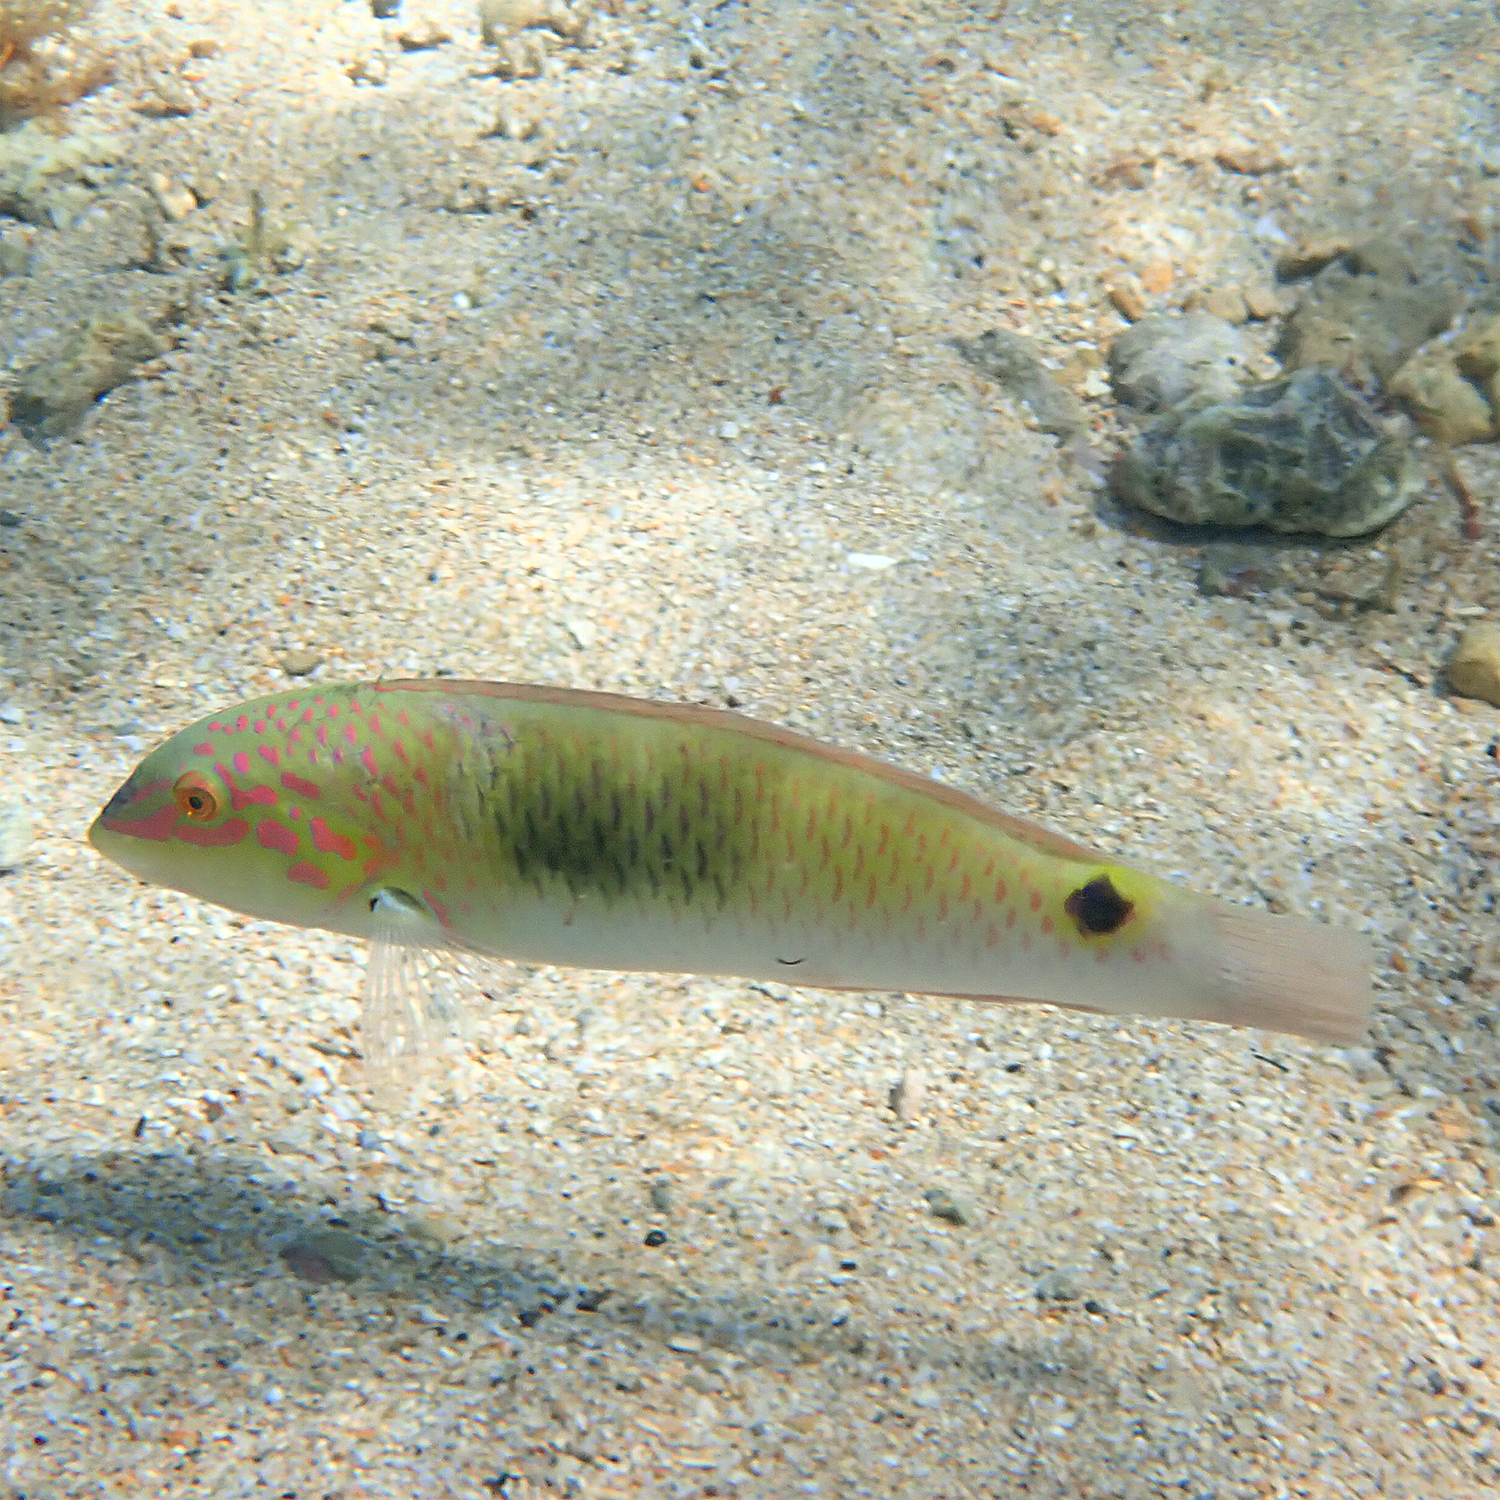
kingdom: Animalia
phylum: Chordata
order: Perciformes
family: Labridae
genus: Halichoeres
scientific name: Halichoeres trimaculatus
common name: Three-spot wrasse
